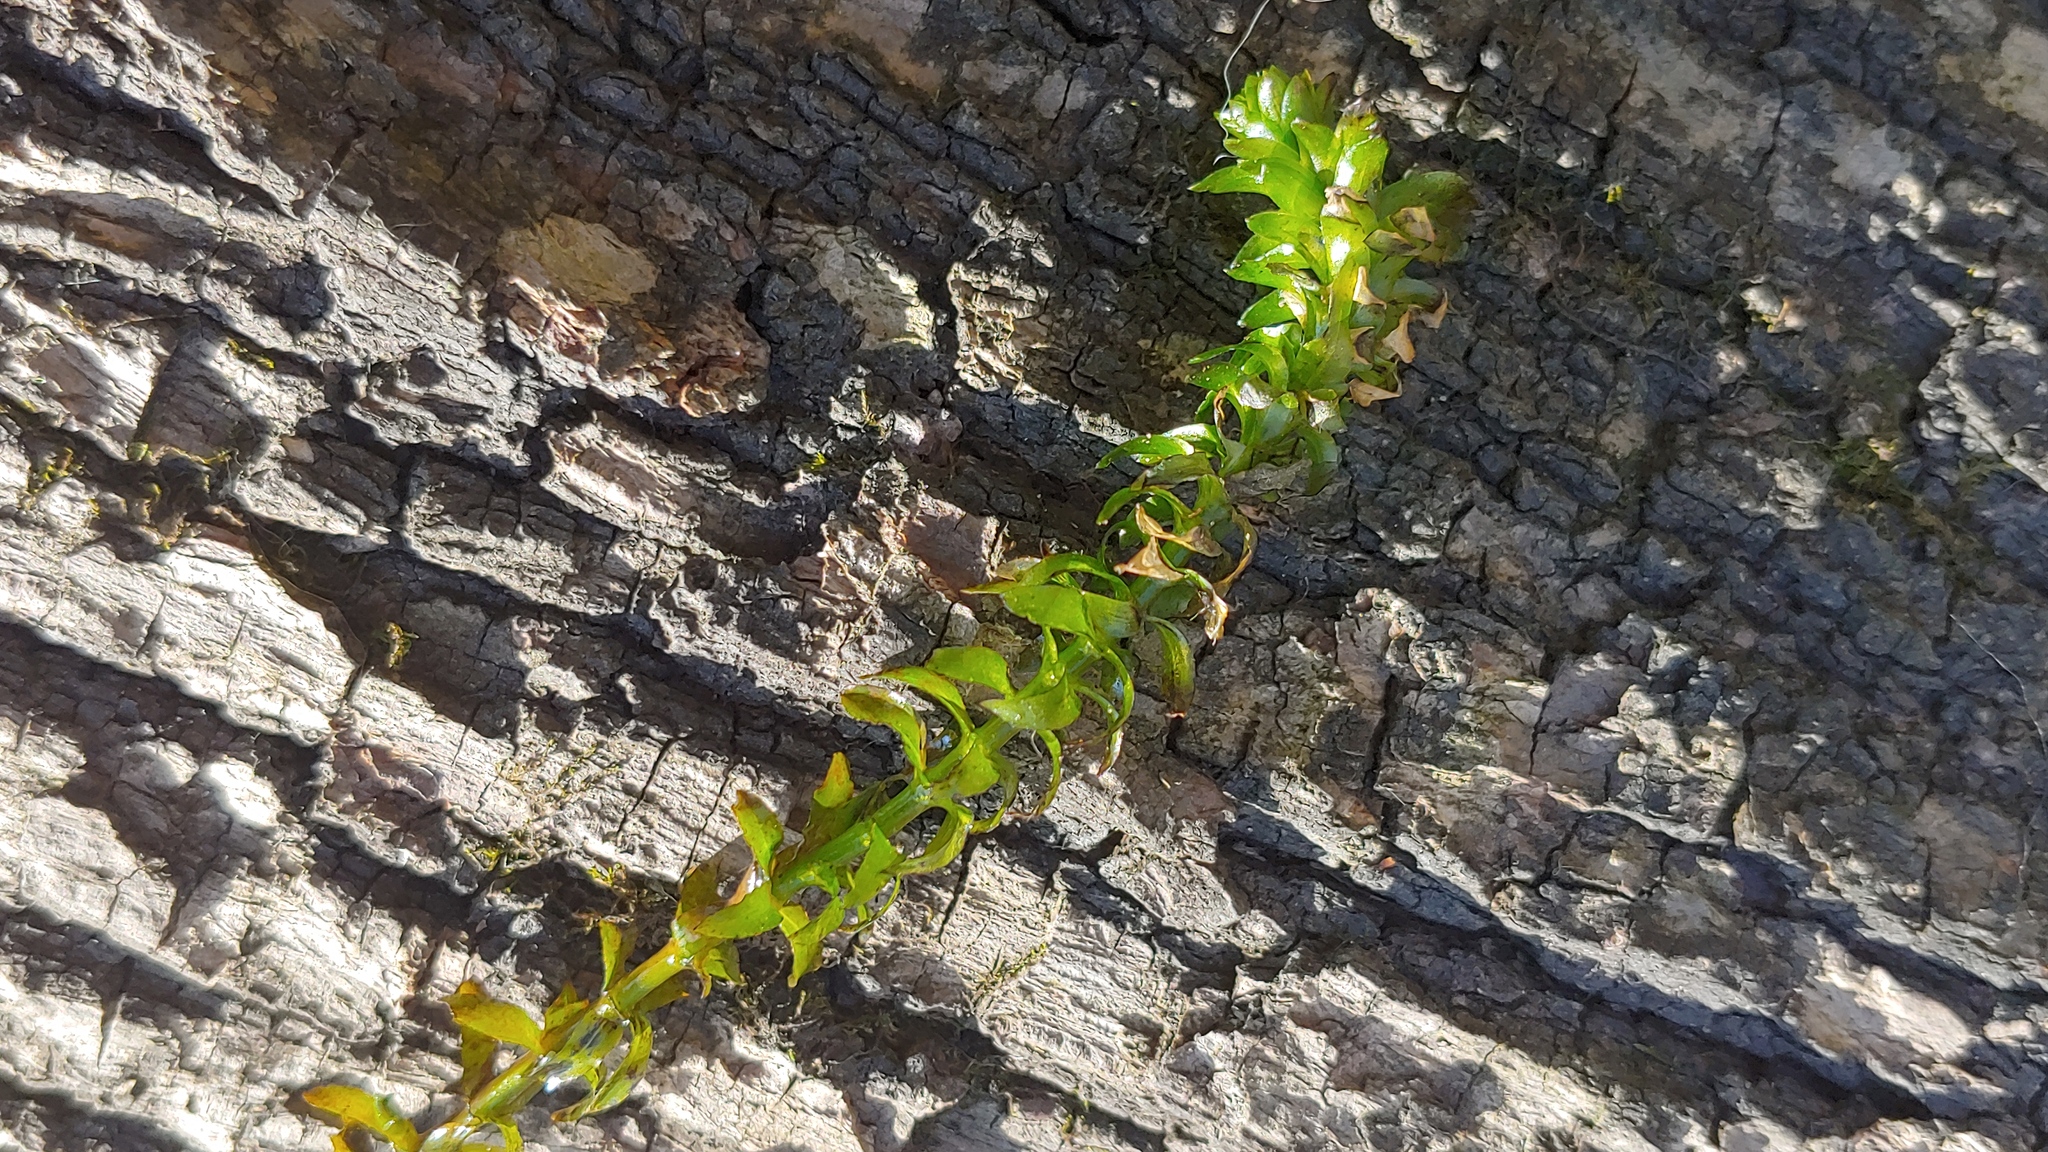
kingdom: Plantae
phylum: Tracheophyta
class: Liliopsida
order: Alismatales
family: Hydrocharitaceae
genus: Elodea
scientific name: Elodea canadensis
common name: Canadian waterweed
